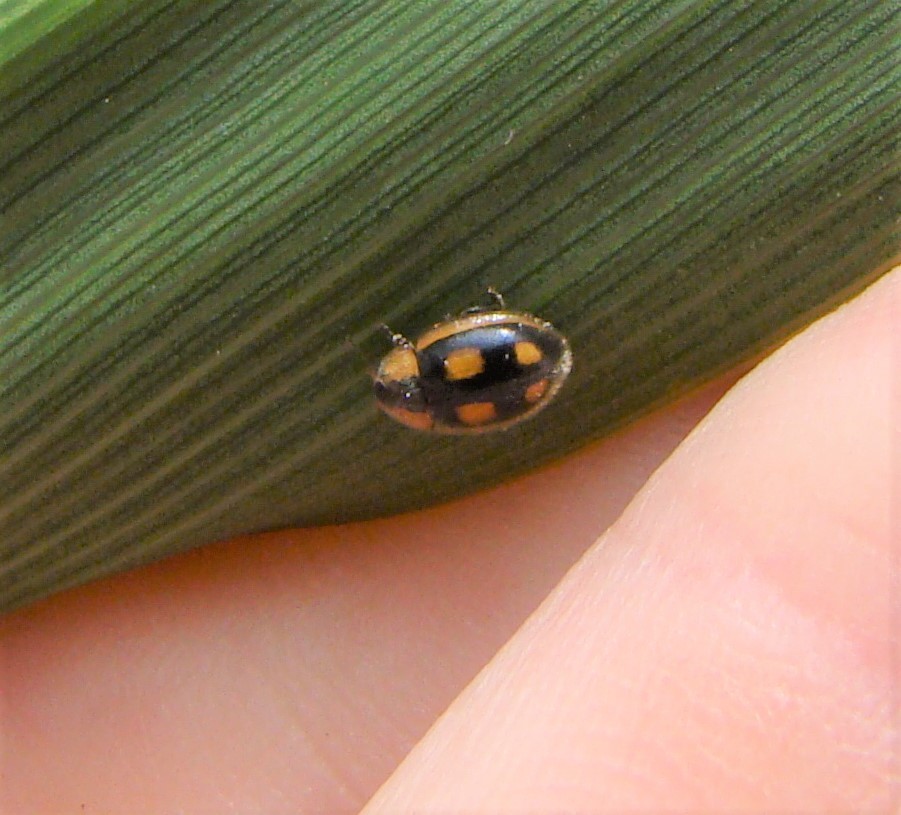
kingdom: Animalia
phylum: Arthropoda
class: Insecta
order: Coleoptera
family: Coccinellidae
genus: Hoangus
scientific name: Hoangus
